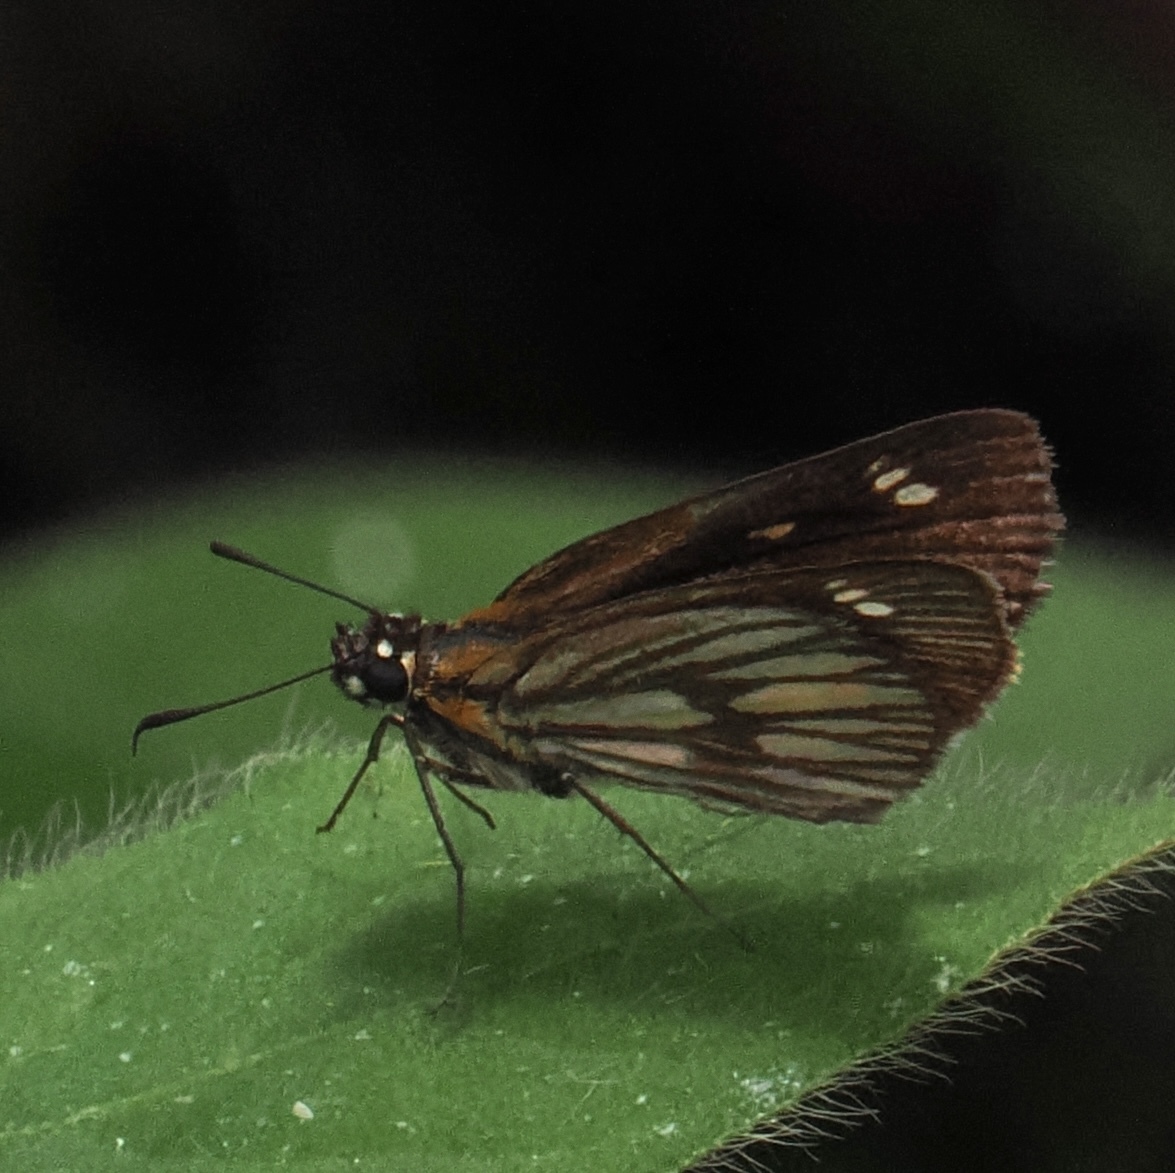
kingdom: Animalia
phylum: Arthropoda
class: Insecta
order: Lepidoptera
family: Hesperiidae
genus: Vehilius
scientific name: Vehilius clavicula
